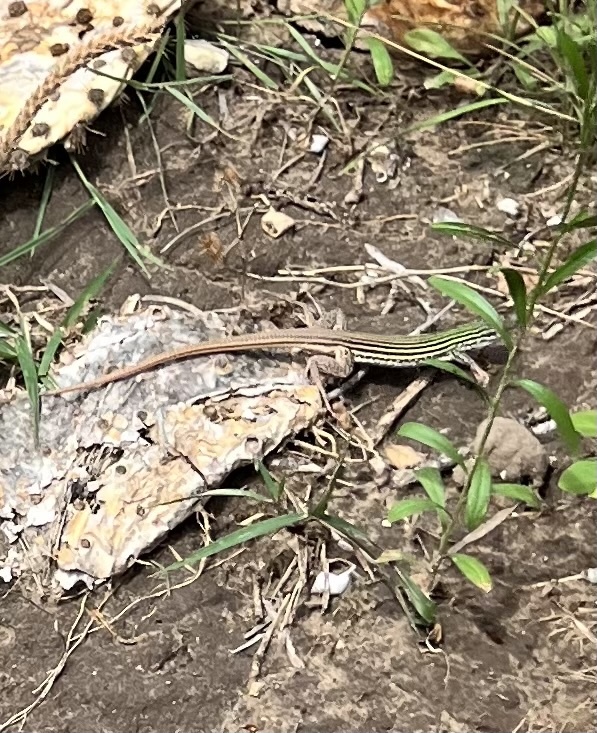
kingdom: Animalia
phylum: Chordata
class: Squamata
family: Teiidae
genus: Aspidoscelis
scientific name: Aspidoscelis gularis
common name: Eastern spotted whiptail
